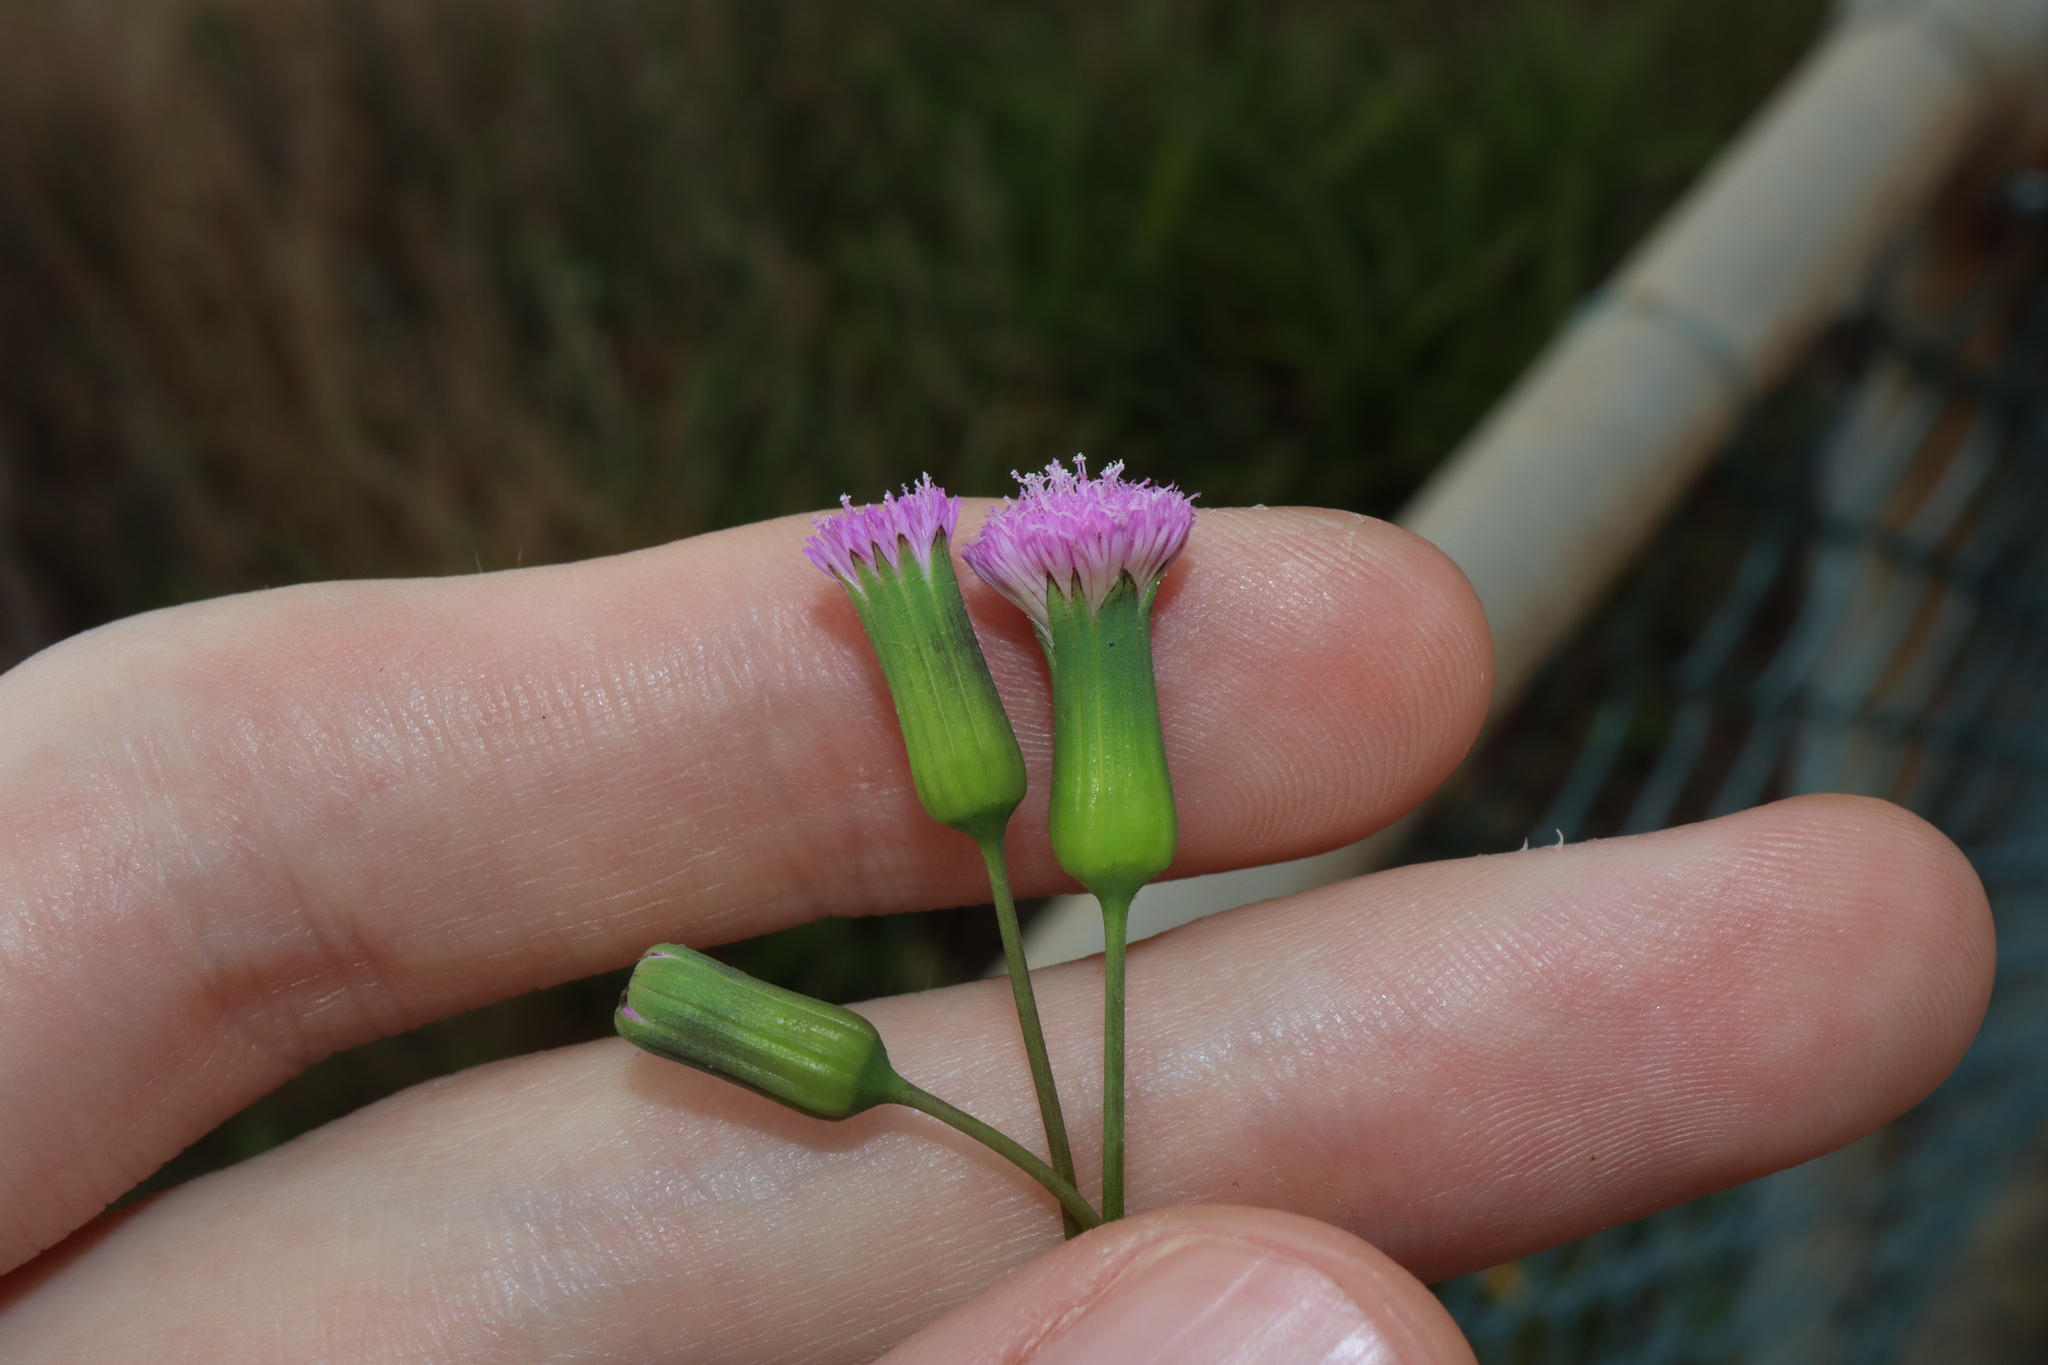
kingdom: Plantae
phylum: Tracheophyta
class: Magnoliopsida
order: Asterales
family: Asteraceae
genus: Emilia
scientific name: Emilia javanica
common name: Tassel-flower
